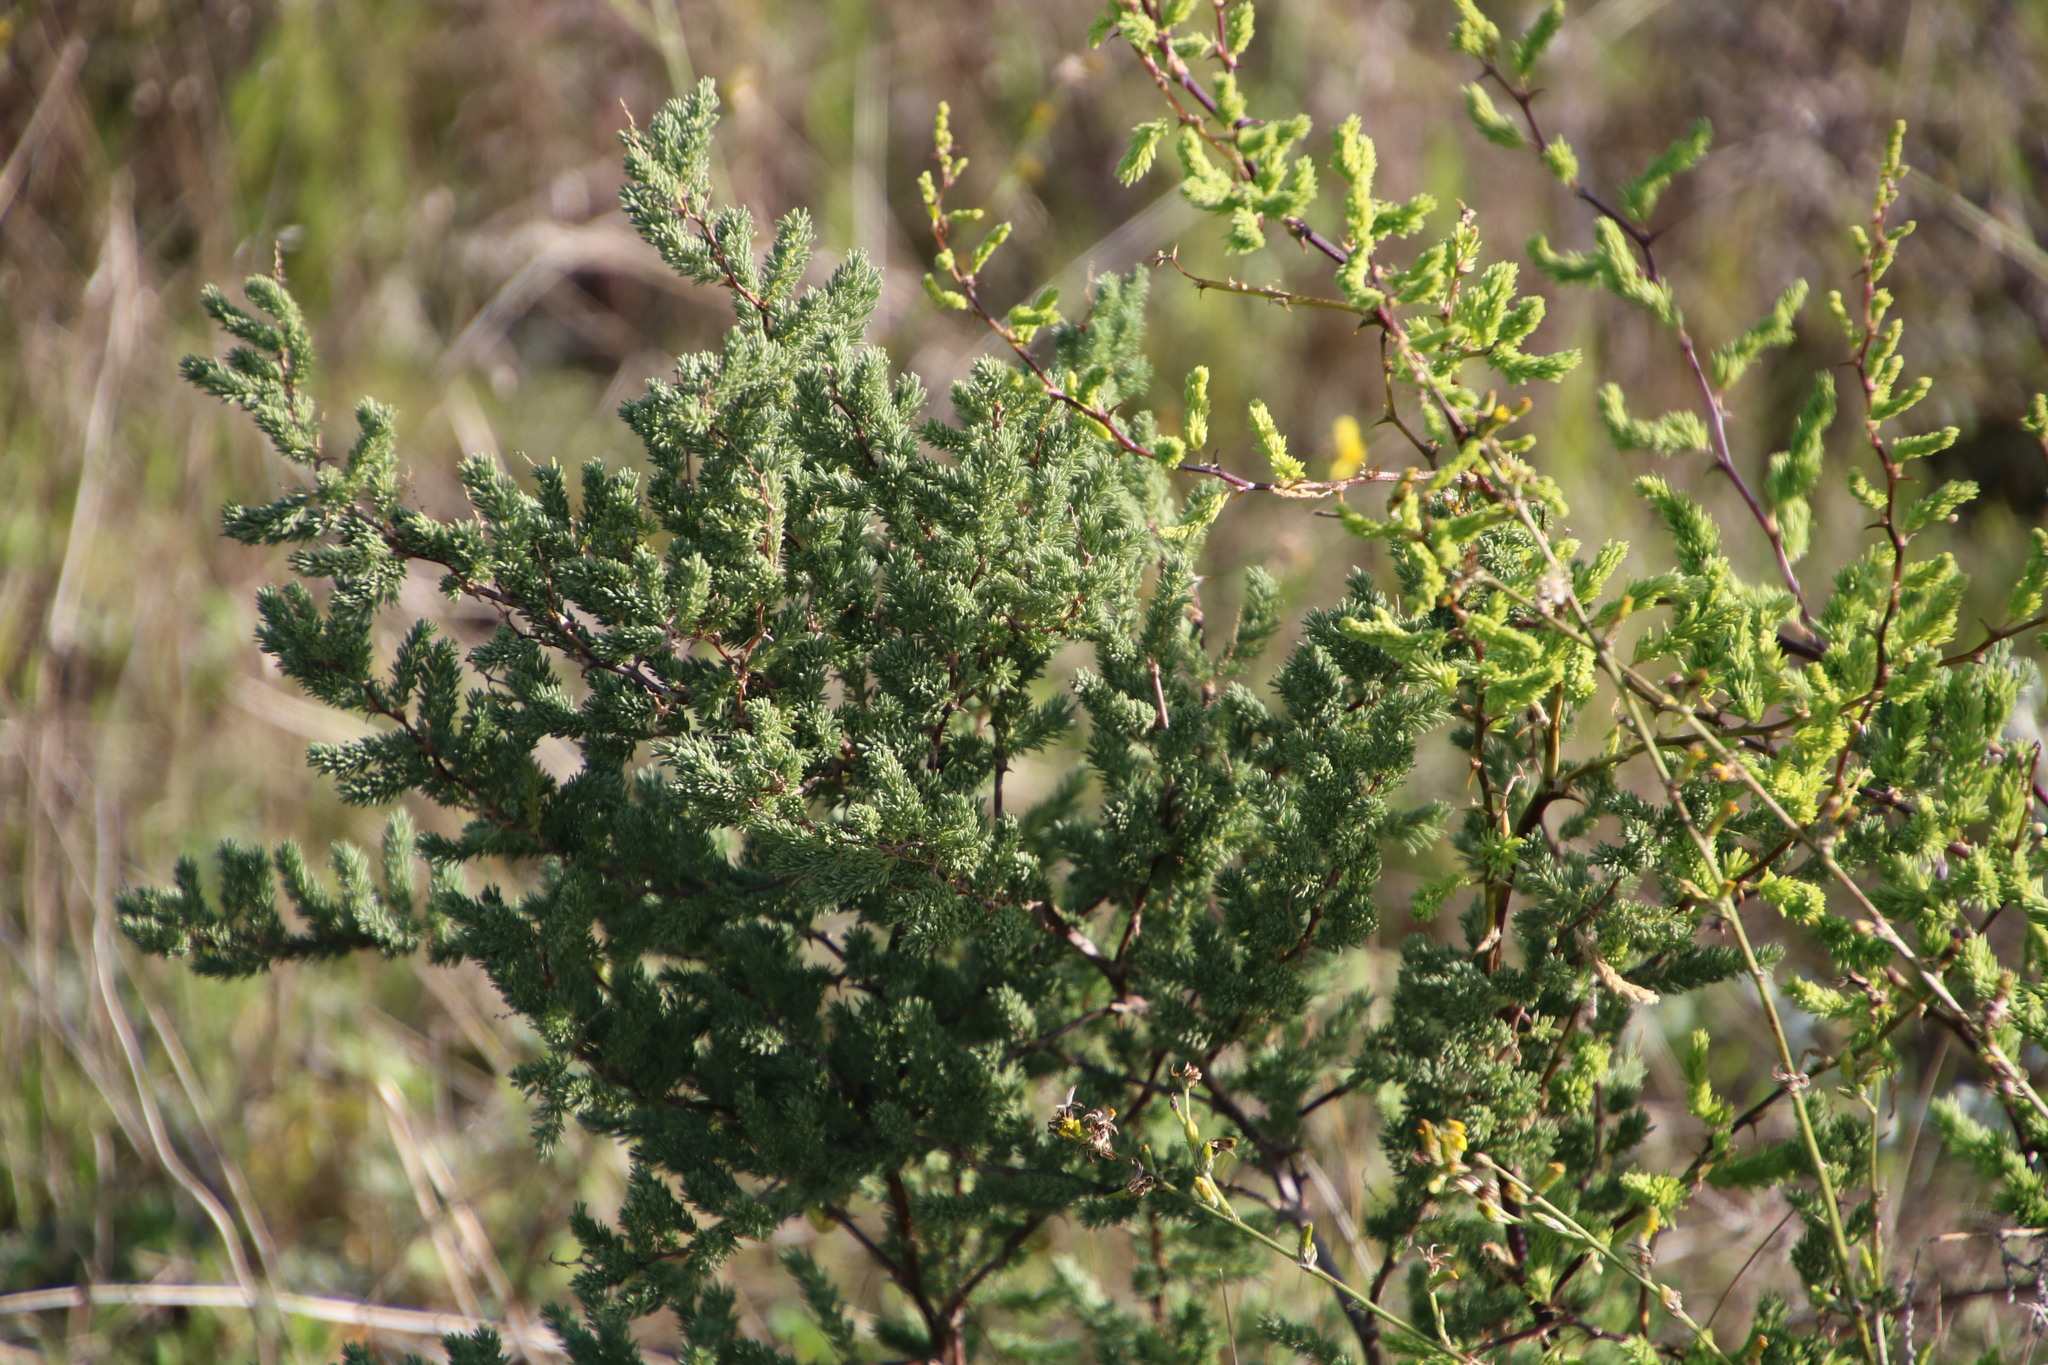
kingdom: Plantae
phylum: Tracheophyta
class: Liliopsida
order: Asparagales
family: Asparagaceae
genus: Asparagus
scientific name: Asparagus rubicundus
